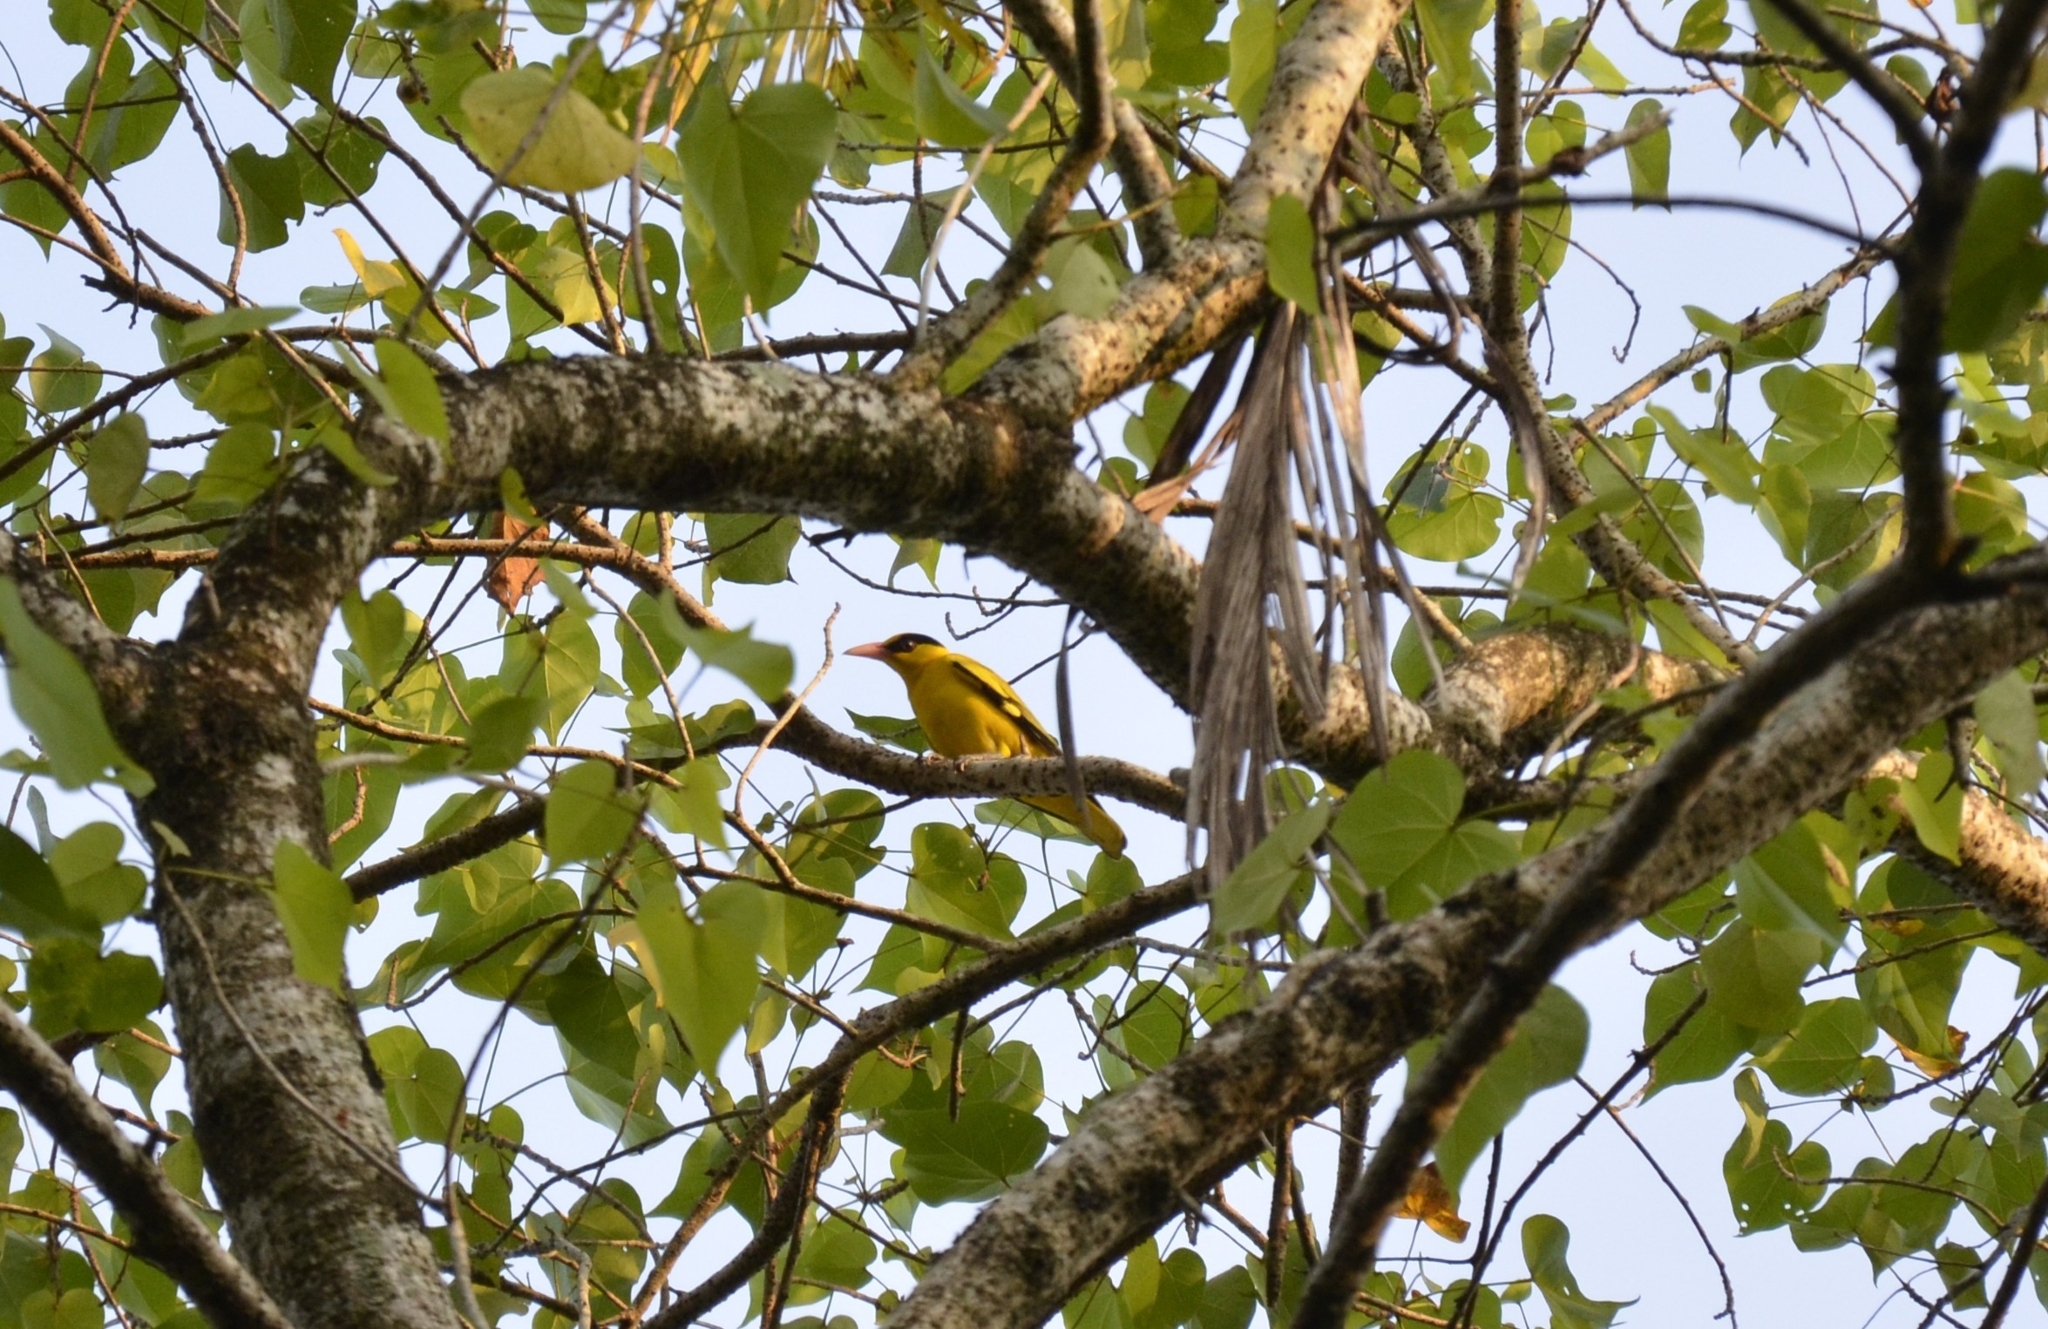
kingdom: Animalia
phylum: Chordata
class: Aves
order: Passeriformes
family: Oriolidae
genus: Oriolus
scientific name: Oriolus chinensis
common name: Black-naped oriole
